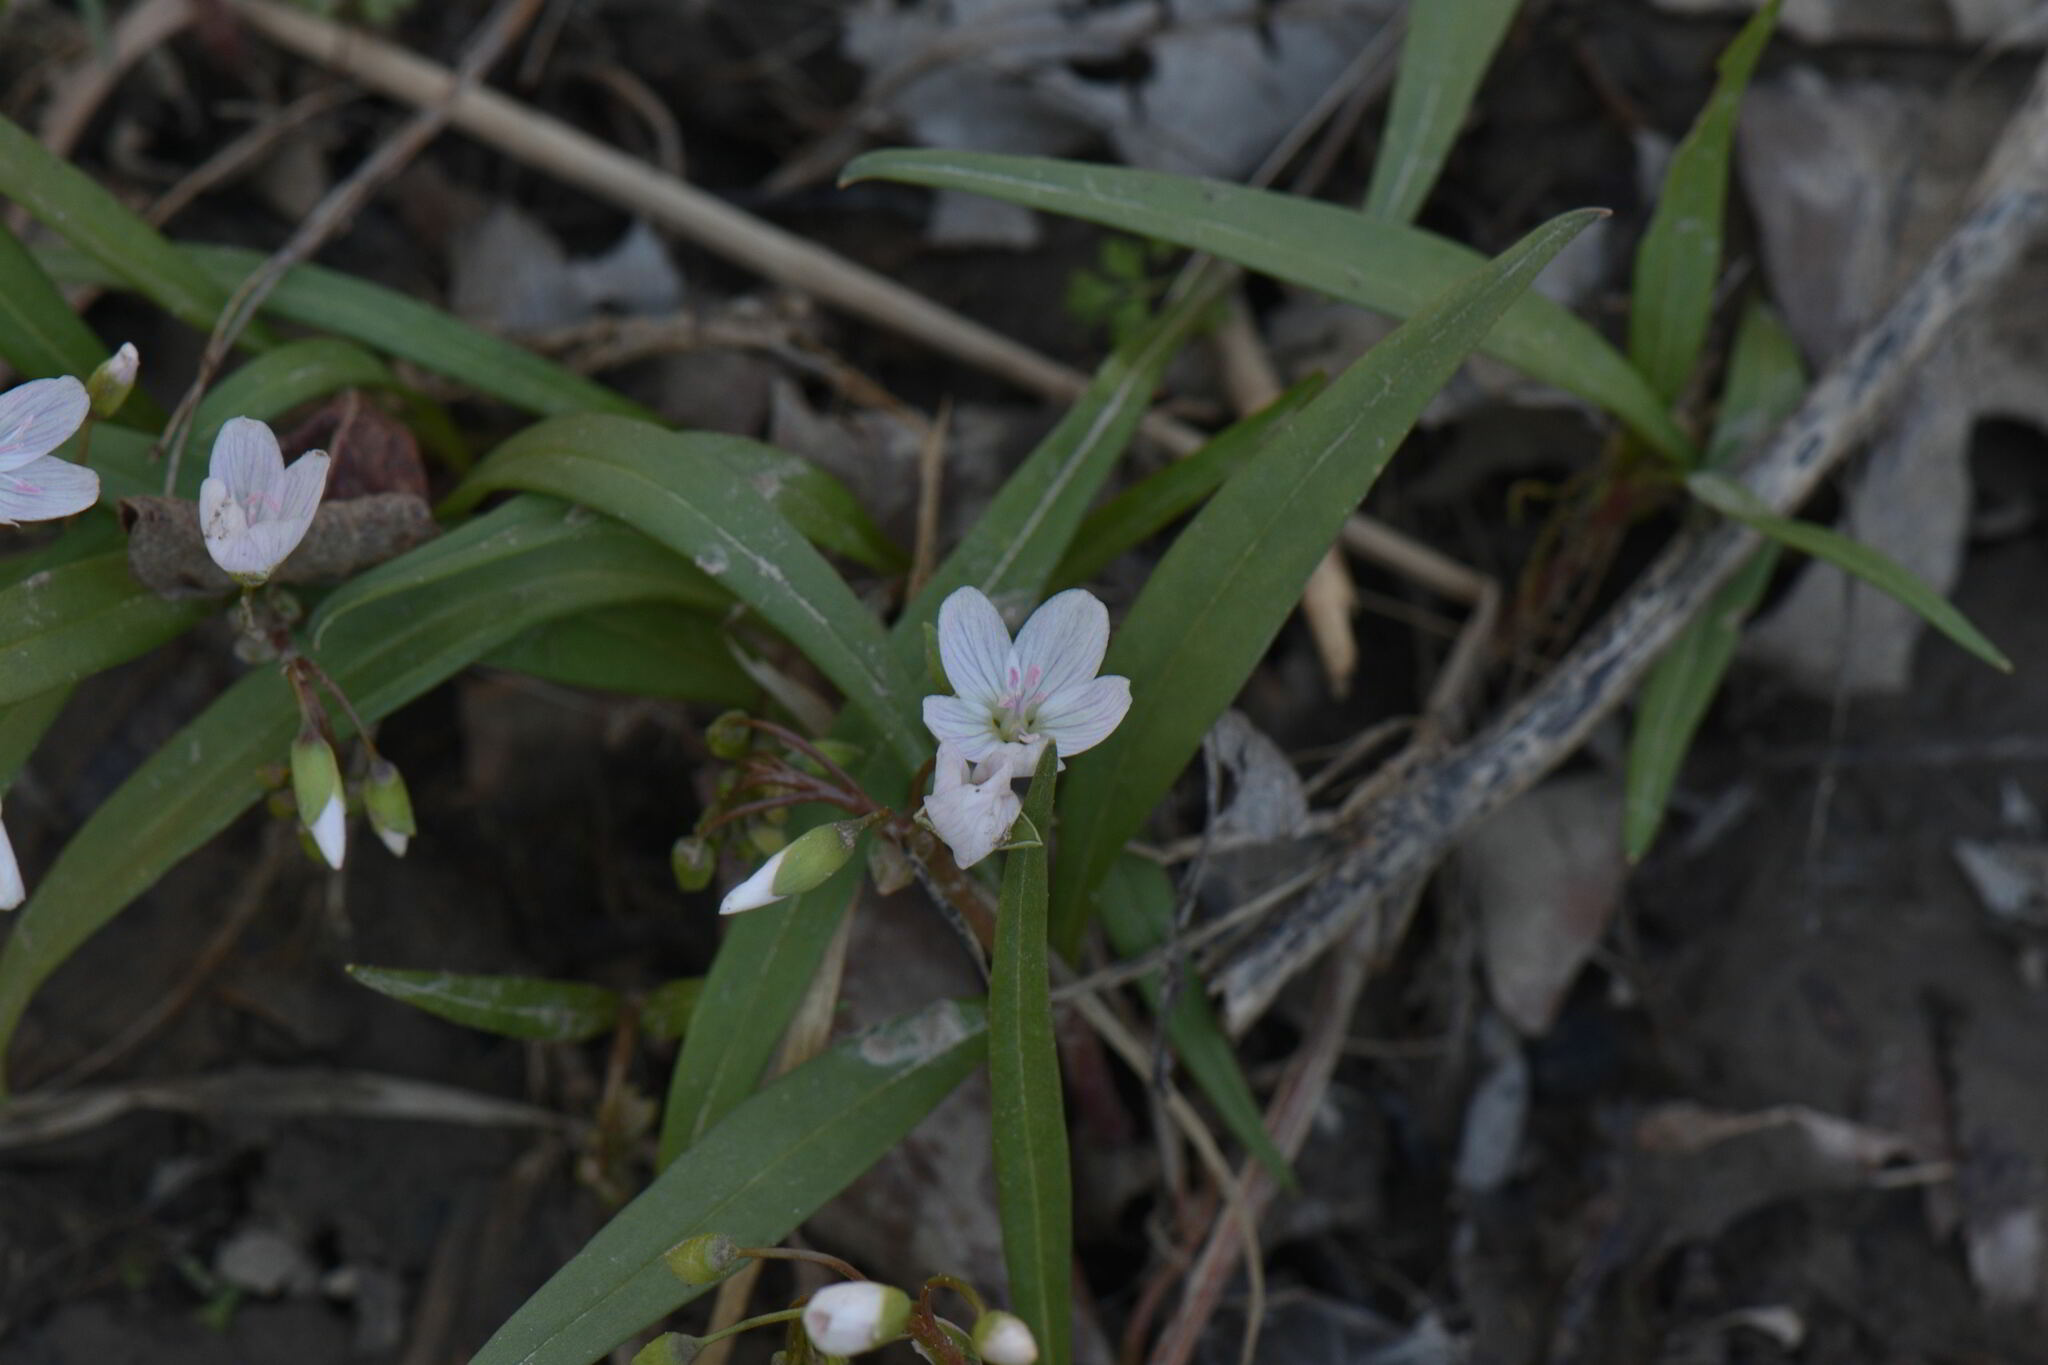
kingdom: Plantae
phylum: Tracheophyta
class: Magnoliopsida
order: Caryophyllales
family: Montiaceae
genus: Claytonia
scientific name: Claytonia virginica
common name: Virginia springbeauty
